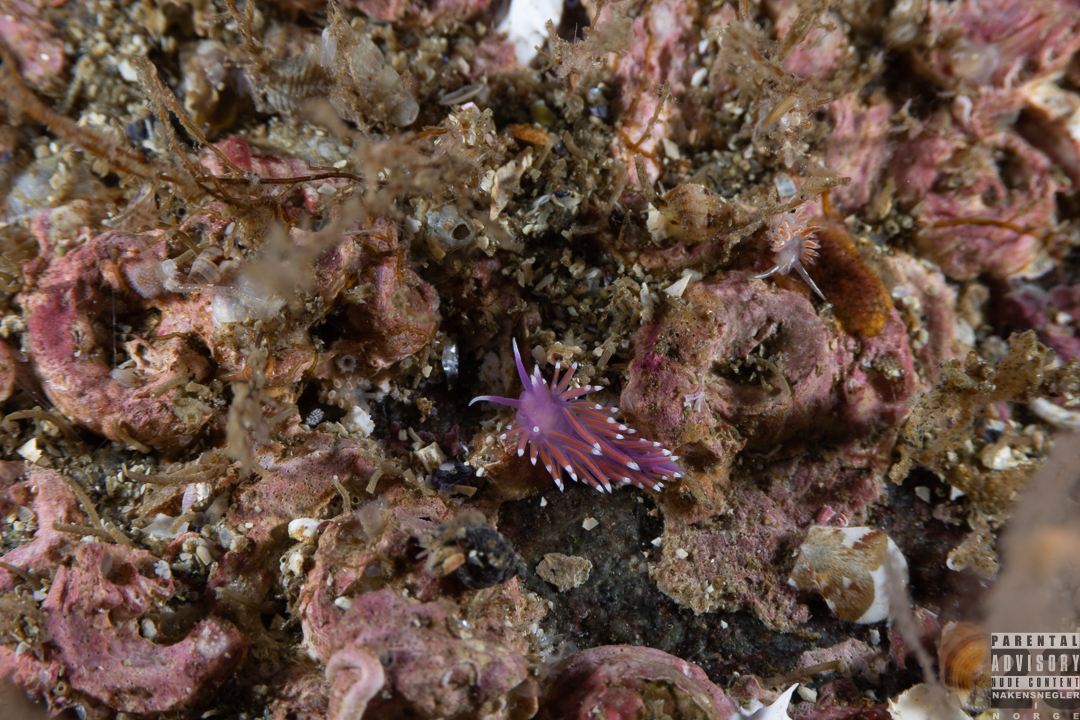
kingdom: Animalia
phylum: Mollusca
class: Gastropoda
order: Nudibranchia
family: Flabellinidae
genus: Edmundsella
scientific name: Edmundsella pedata
